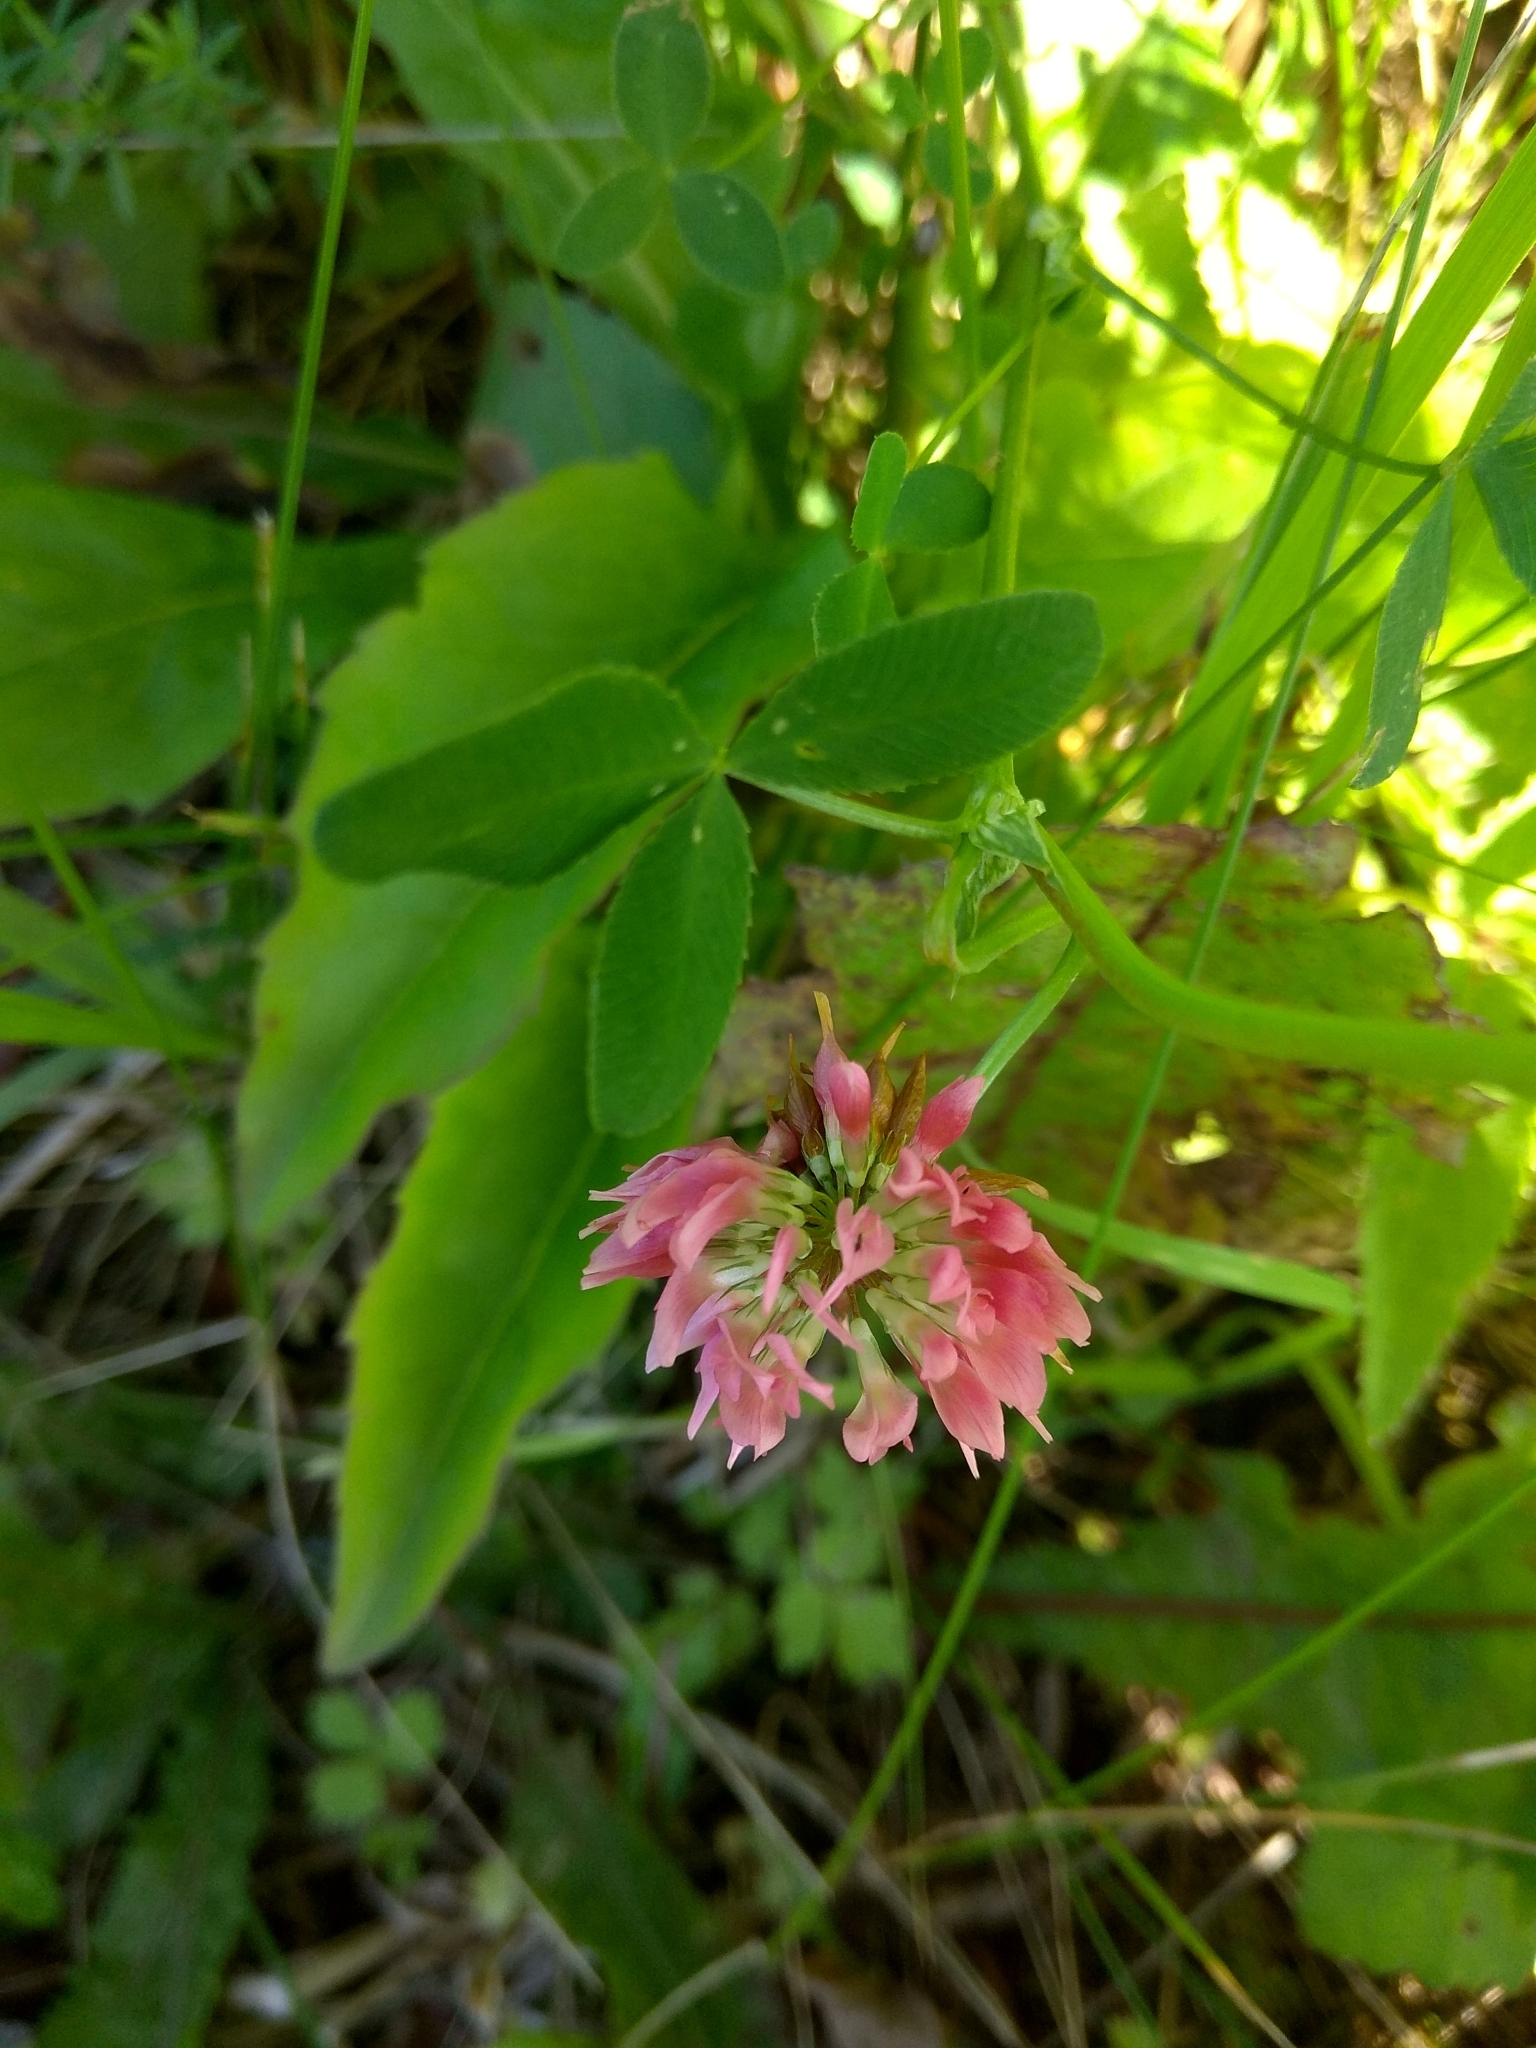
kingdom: Plantae
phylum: Tracheophyta
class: Magnoliopsida
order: Fabales
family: Fabaceae
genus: Trifolium
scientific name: Trifolium hybridum
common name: Alsike clover
